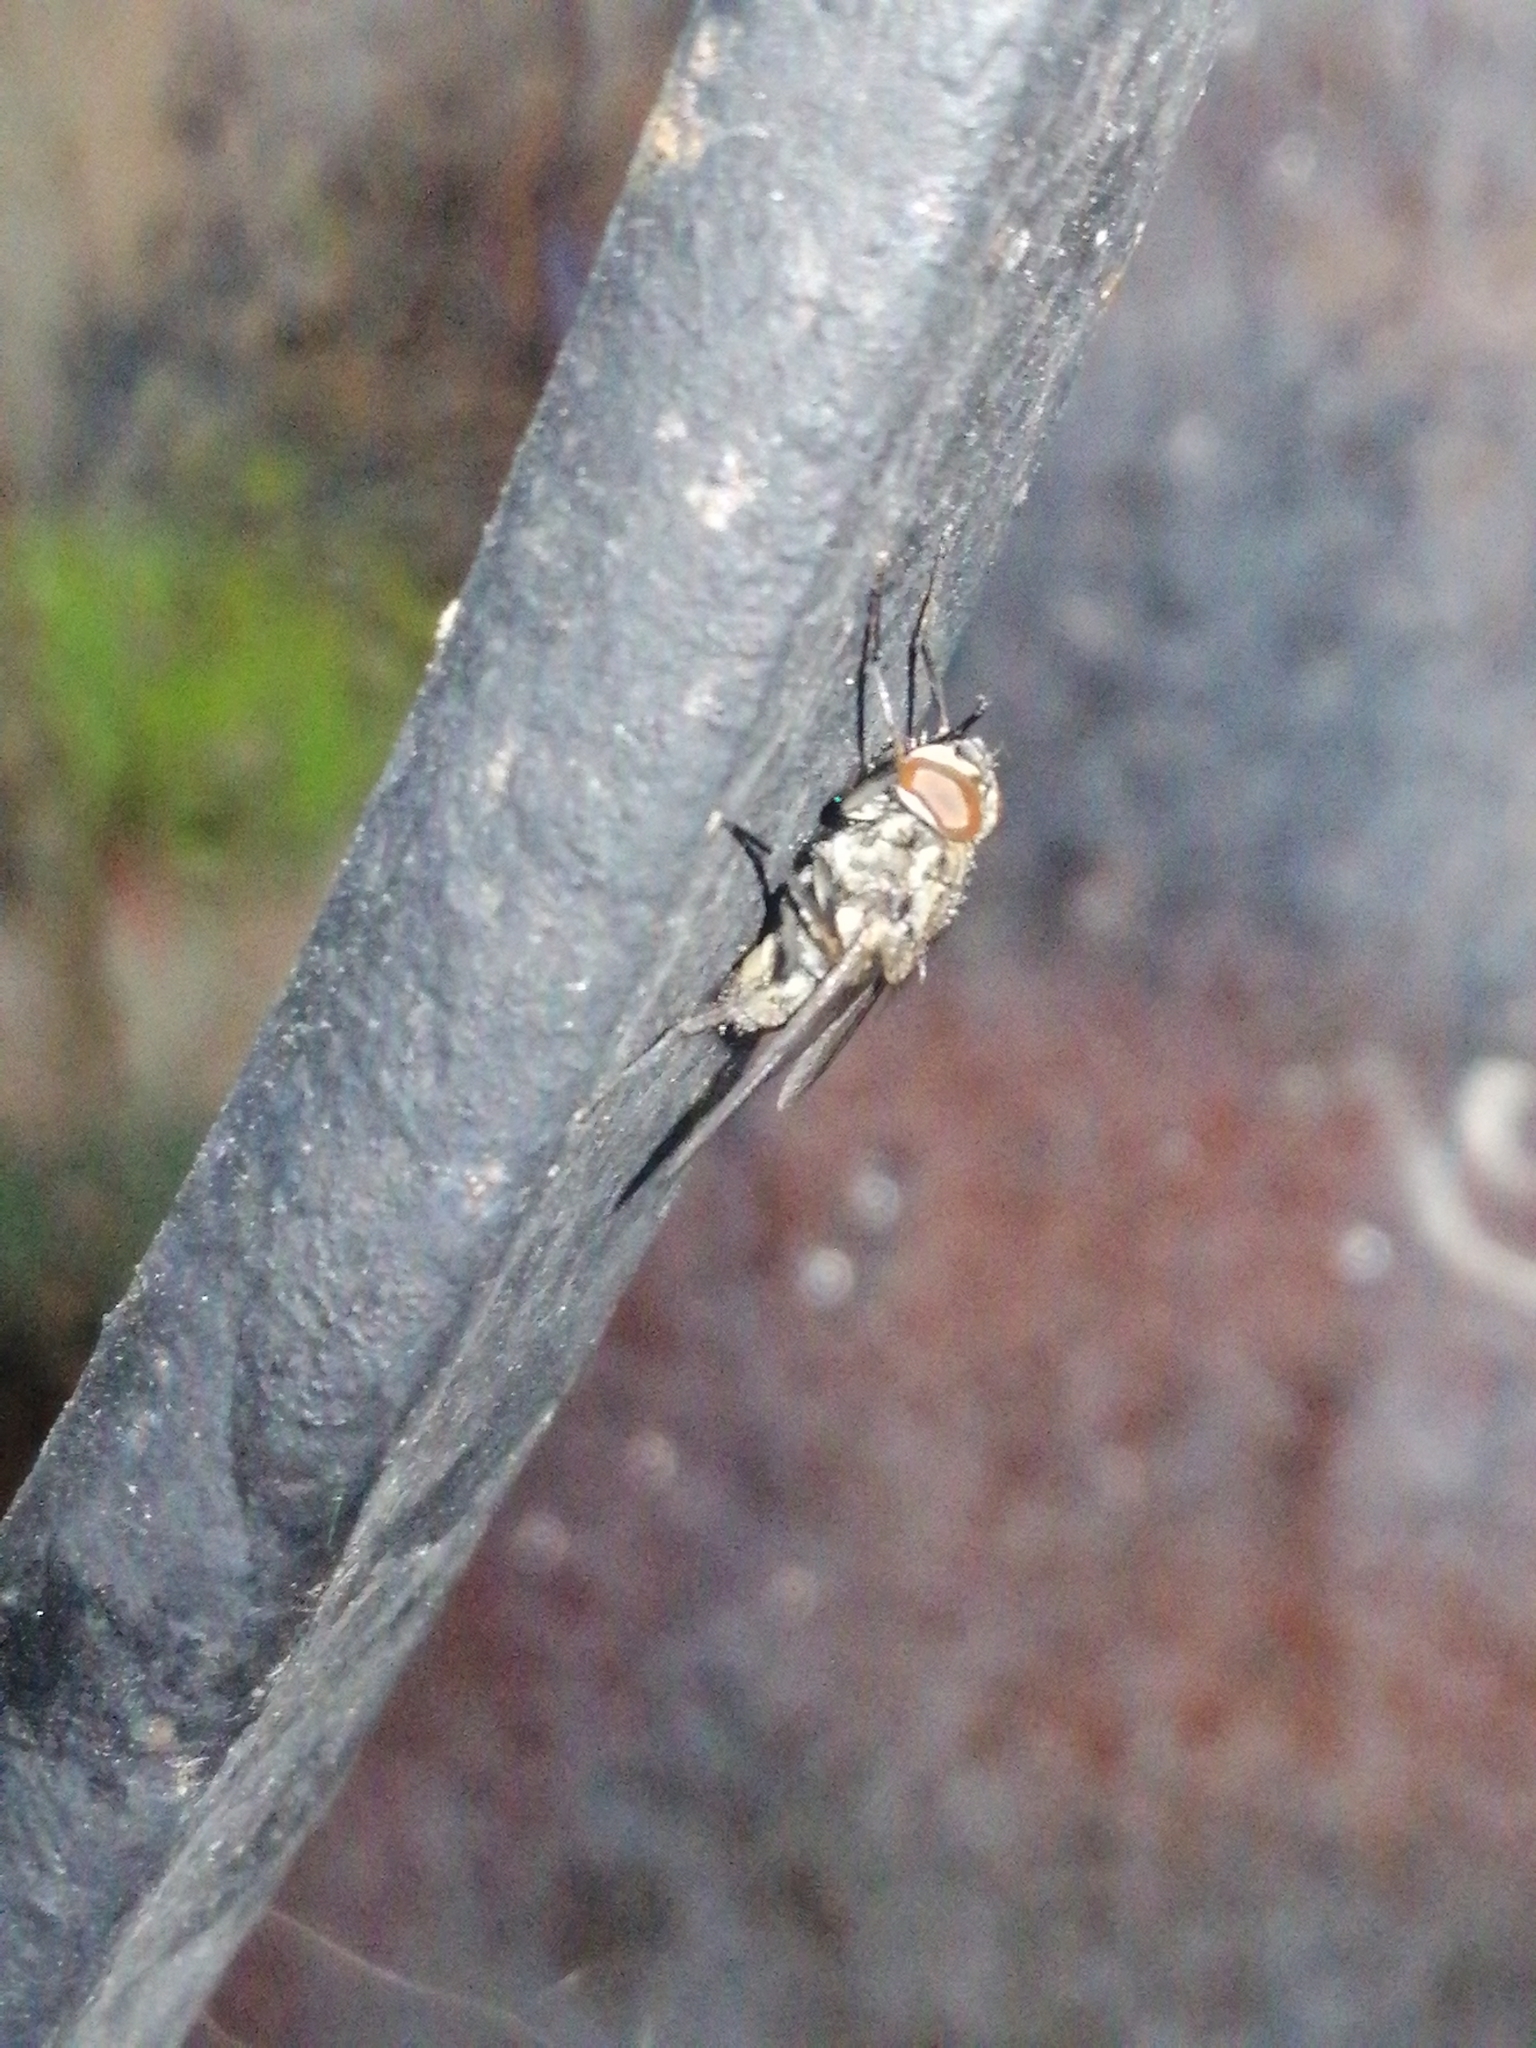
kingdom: Animalia
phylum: Arthropoda
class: Insecta
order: Diptera
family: Muscidae
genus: Stomoxys
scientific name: Stomoxys calcitrans
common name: Stable fly
